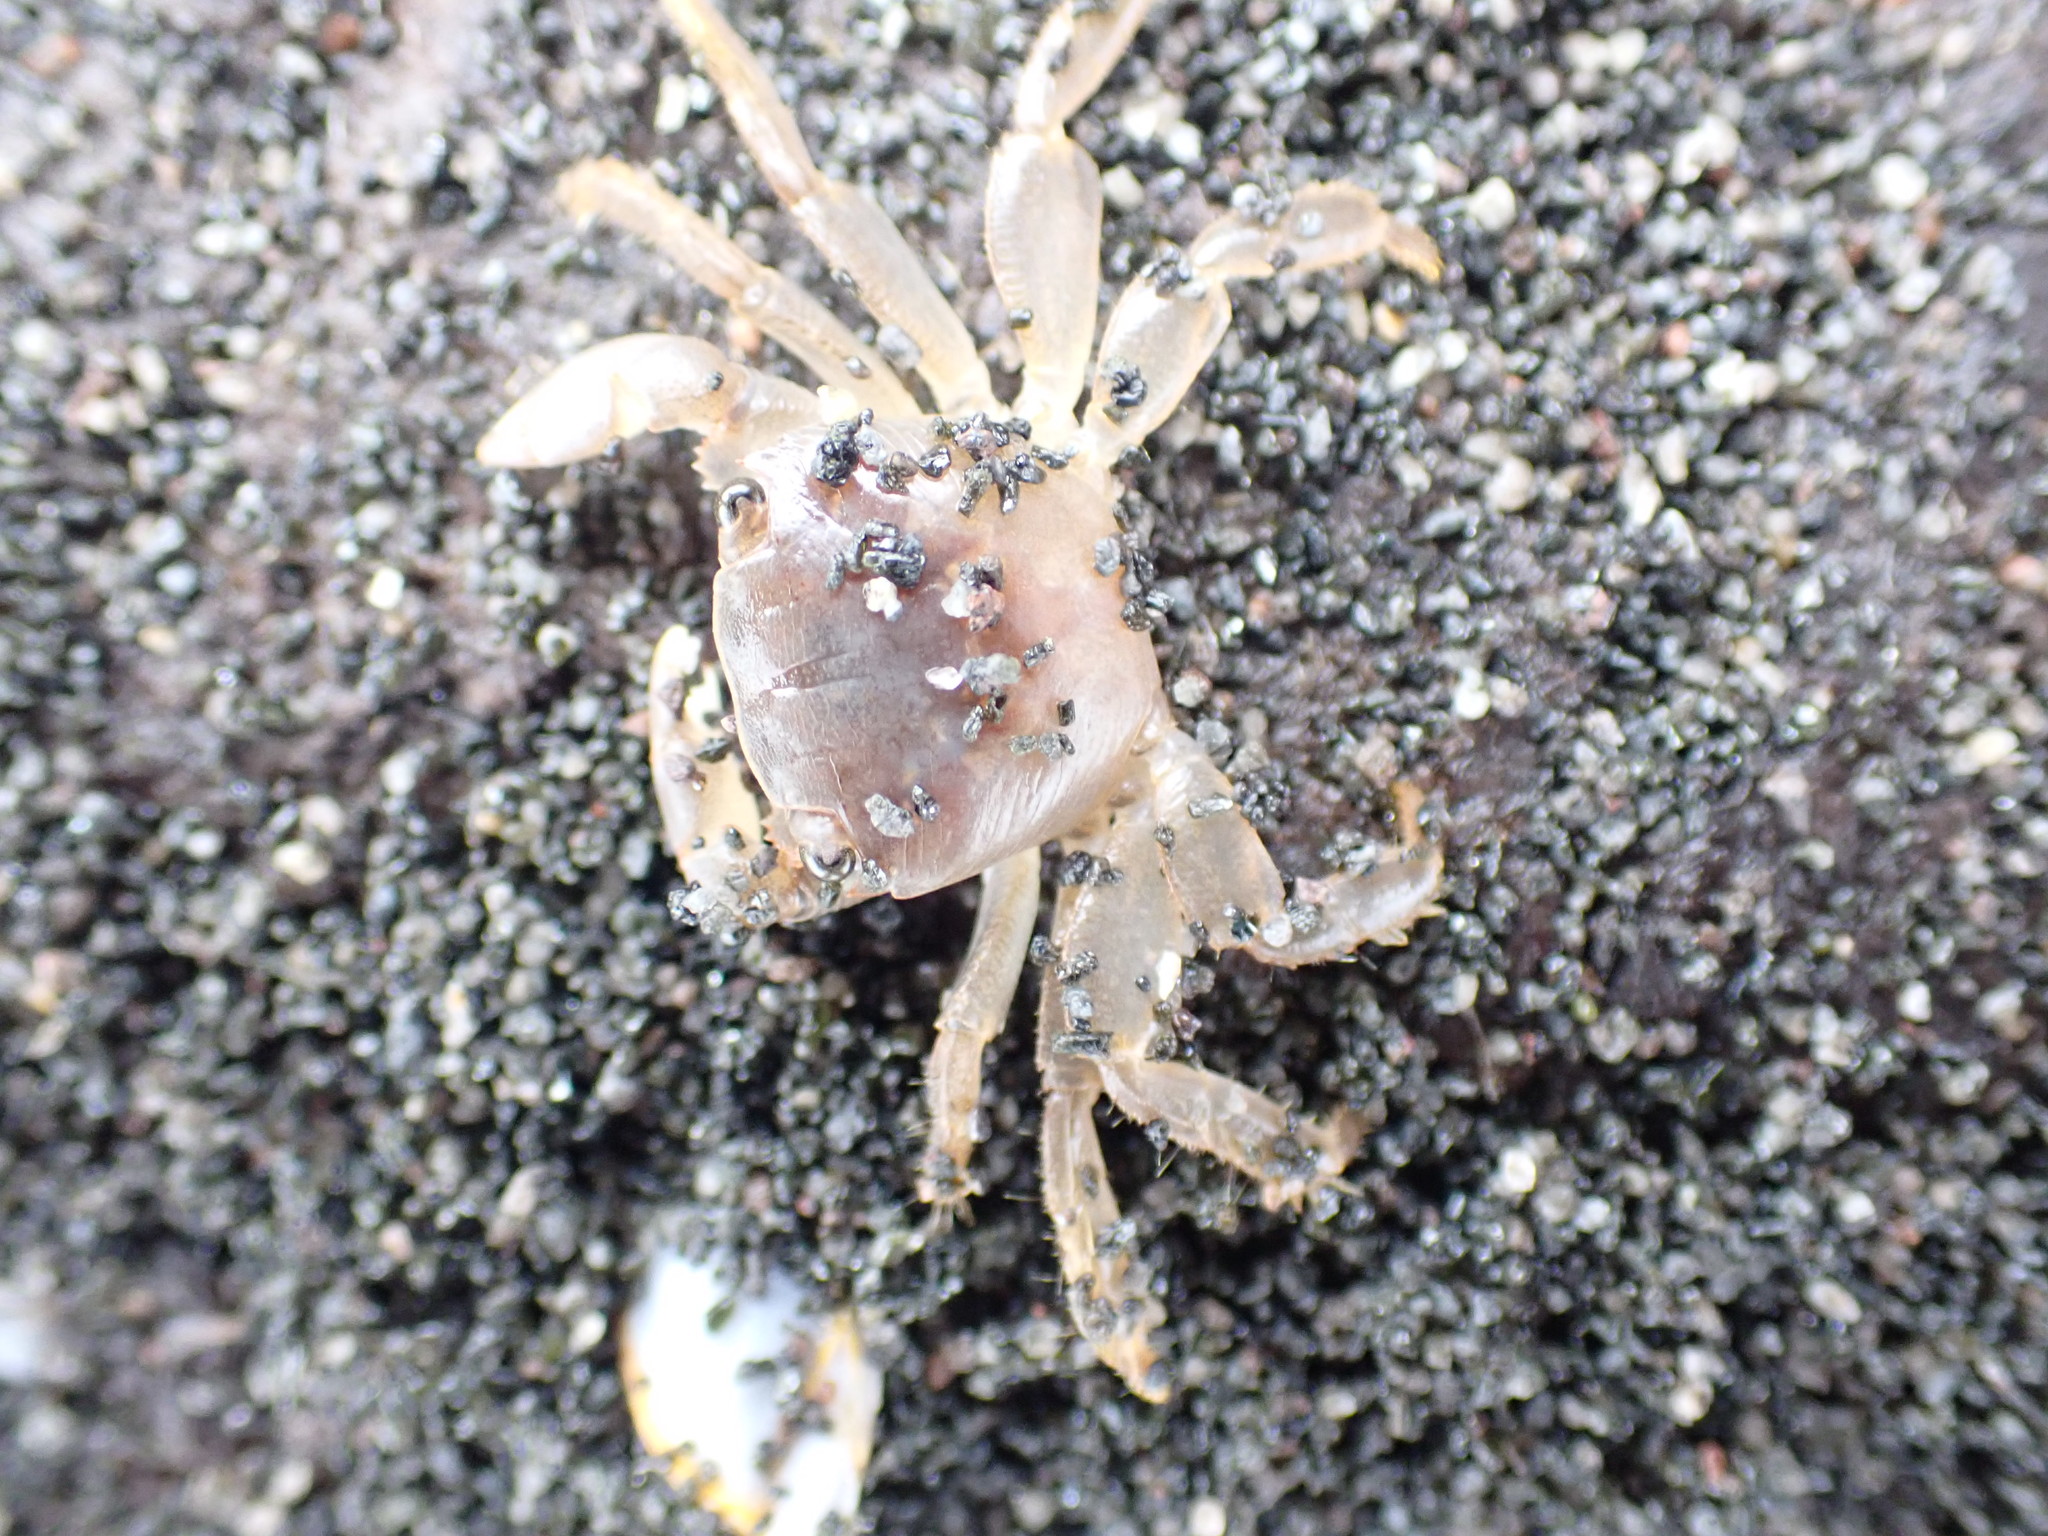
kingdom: Animalia
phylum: Arthropoda
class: Malacostraca
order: Decapoda
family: Grapsidae
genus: Planes
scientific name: Planes minutus
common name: Gulf weed crab
